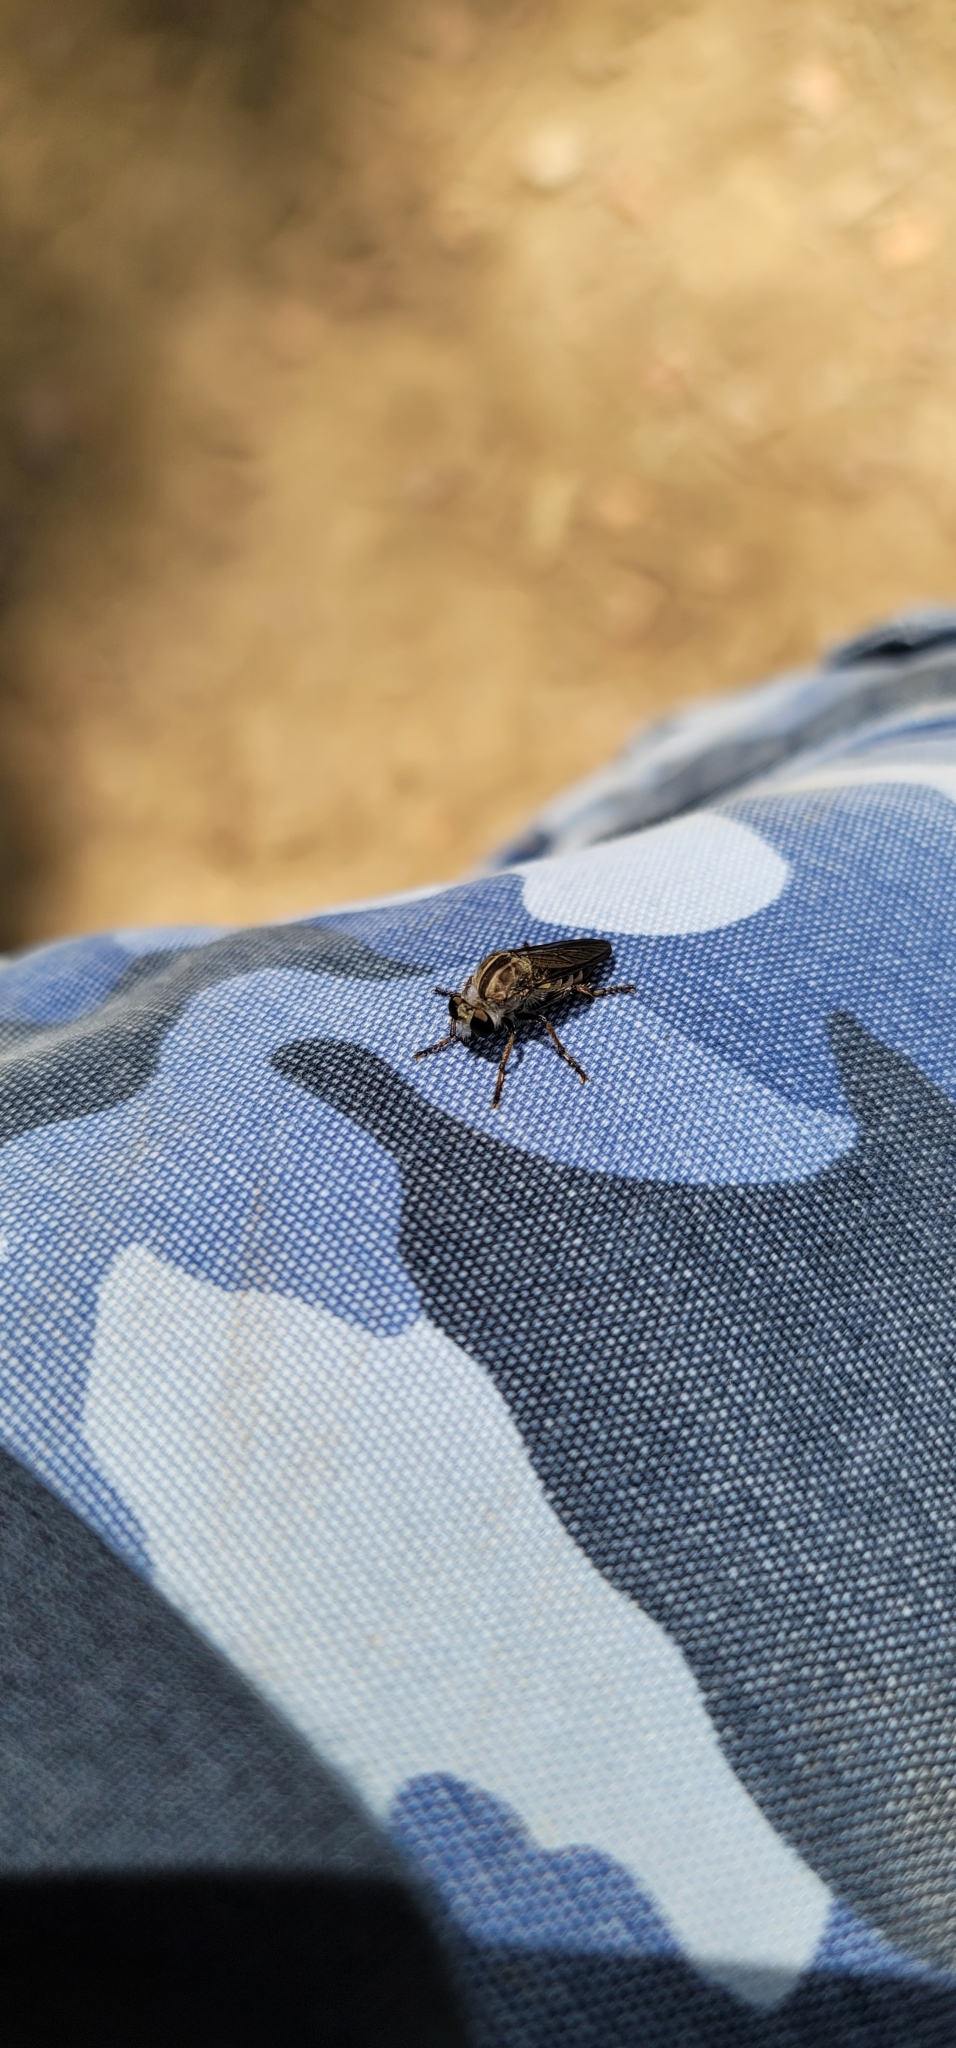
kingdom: Animalia
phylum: Arthropoda
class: Insecta
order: Diptera
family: Asilidae
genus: Heteropogon
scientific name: Heteropogon macerinus
